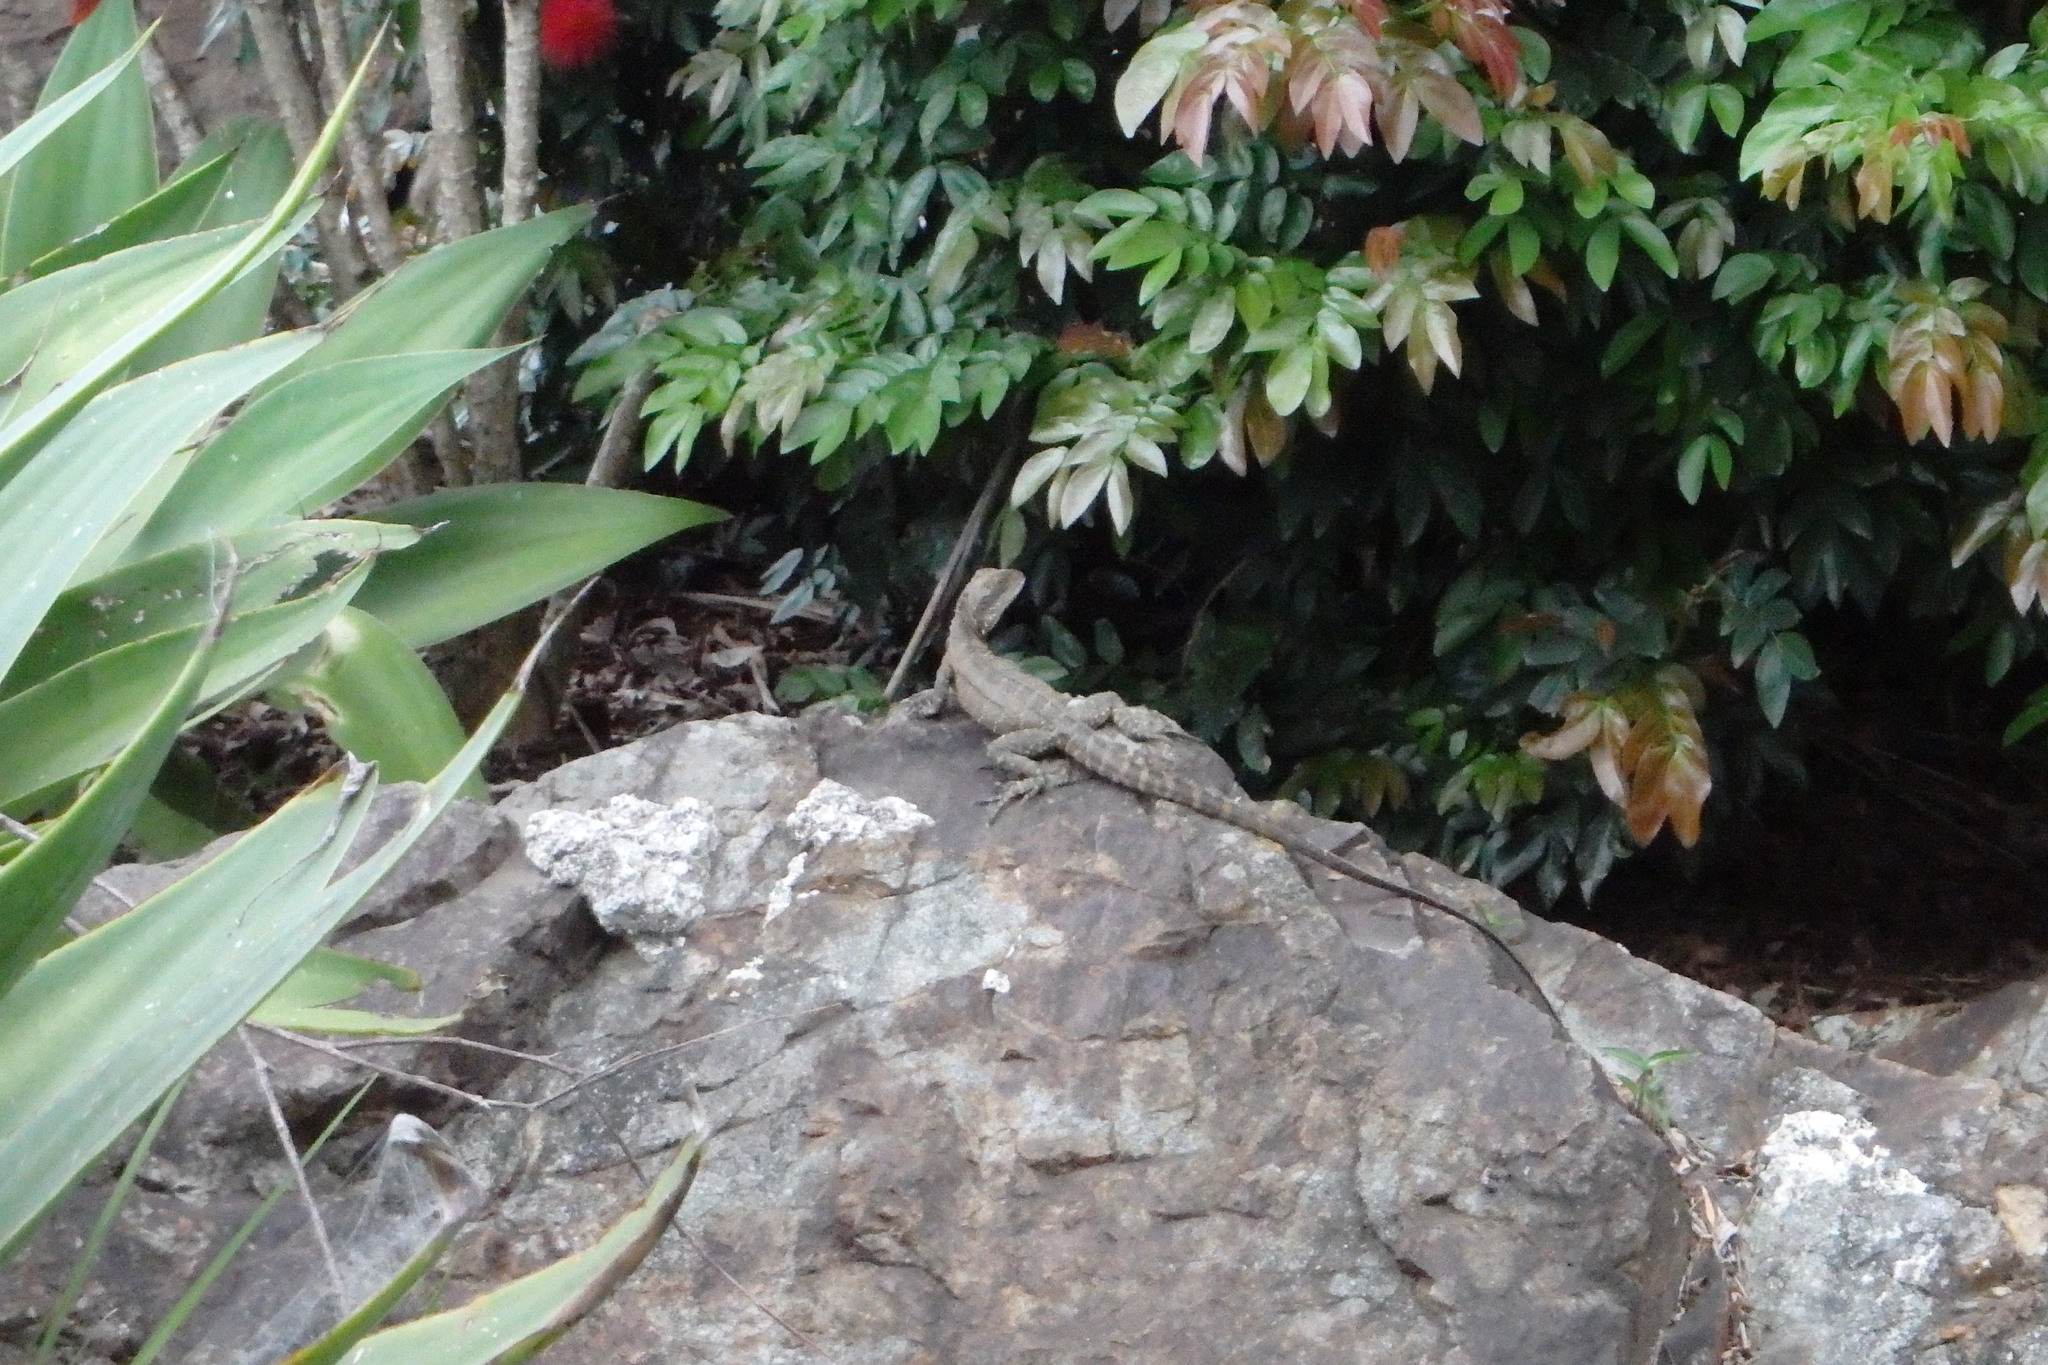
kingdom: Animalia
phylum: Chordata
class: Squamata
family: Agamidae
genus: Intellagama
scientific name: Intellagama lesueurii
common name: Eastern water dragon
